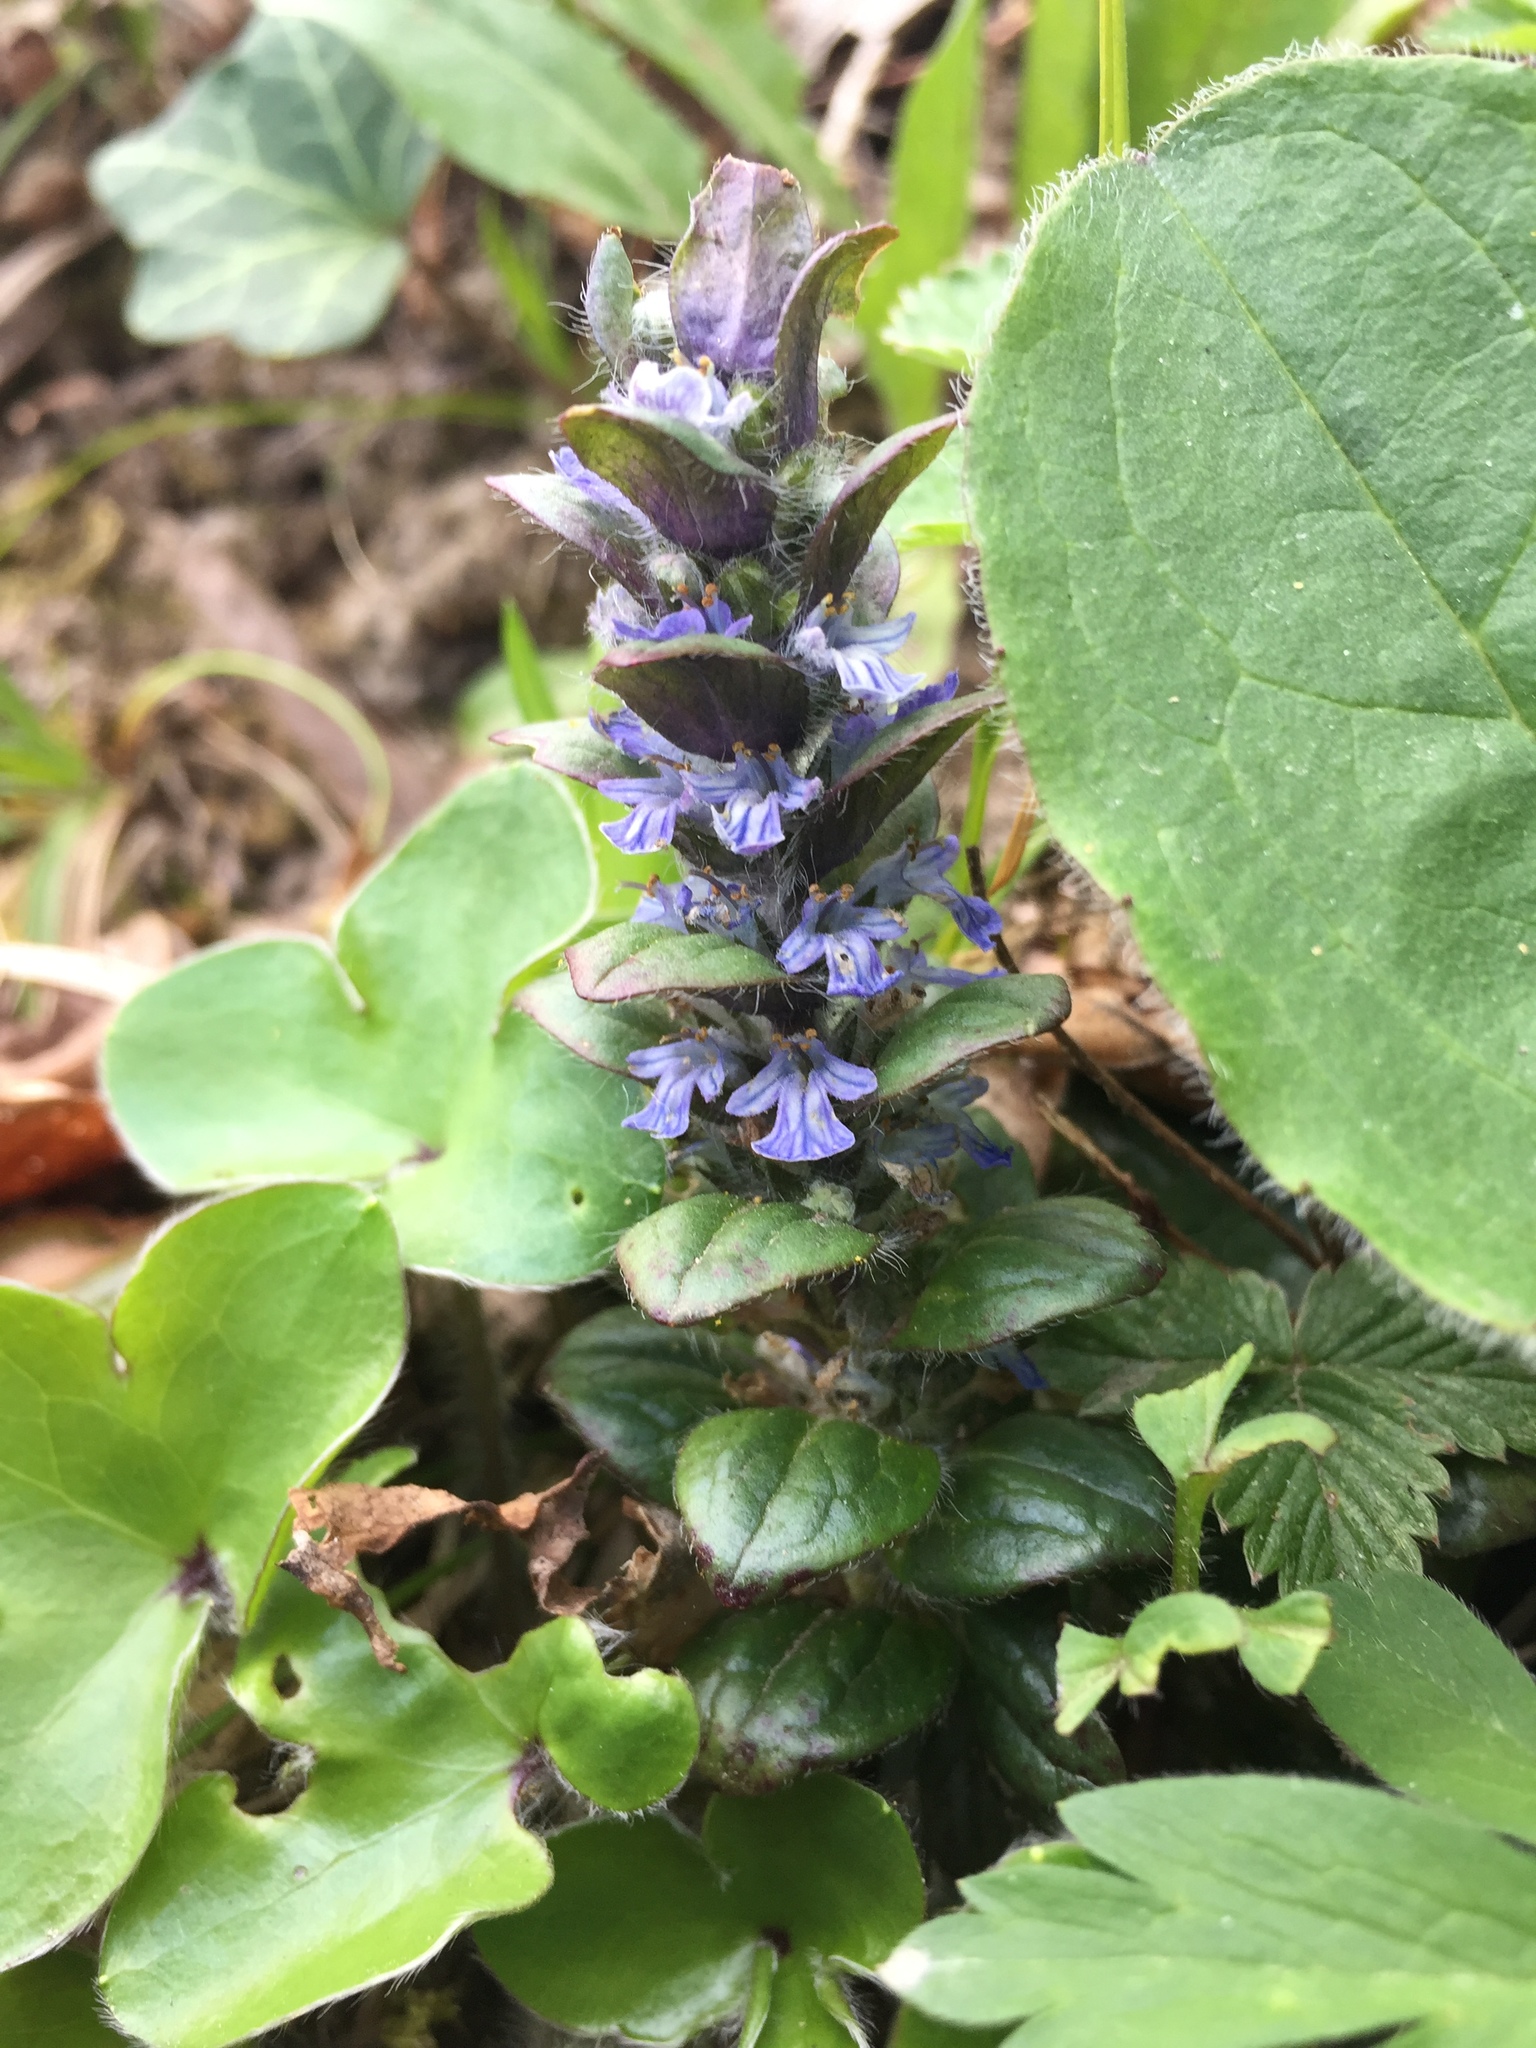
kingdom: Plantae
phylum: Tracheophyta
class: Magnoliopsida
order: Lamiales
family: Lamiaceae
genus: Ajuga
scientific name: Ajuga reptans
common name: Bugle
